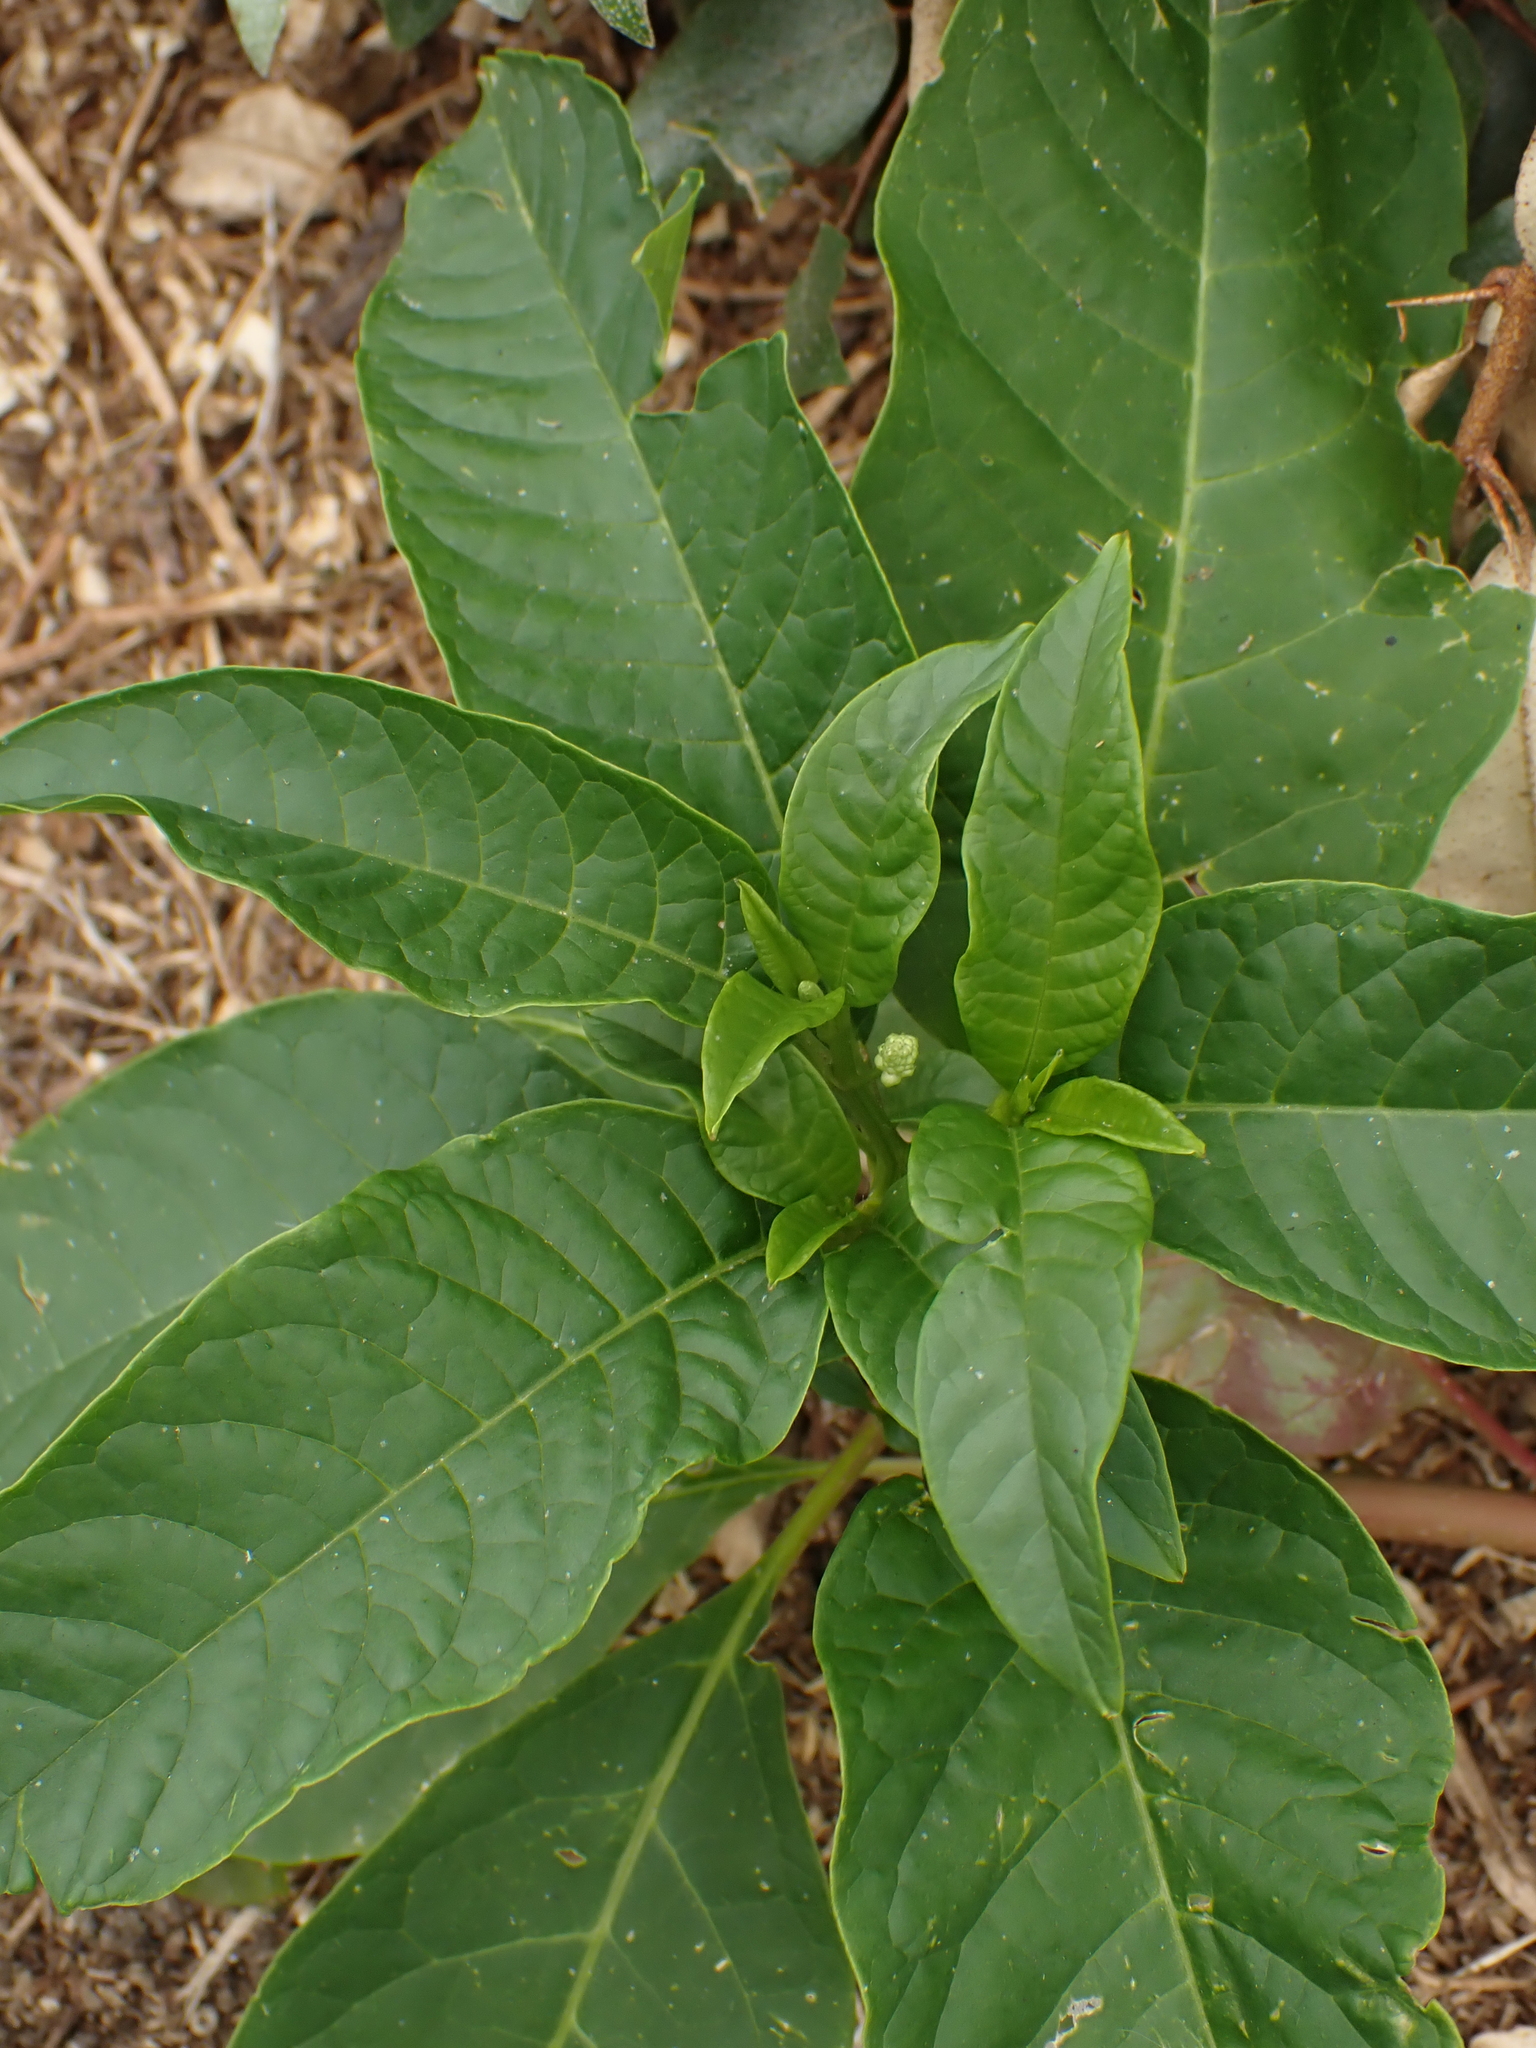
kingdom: Plantae
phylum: Tracheophyta
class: Magnoliopsida
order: Caryophyllales
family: Phytolaccaceae
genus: Phytolacca
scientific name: Phytolacca americana
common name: American pokeweed
